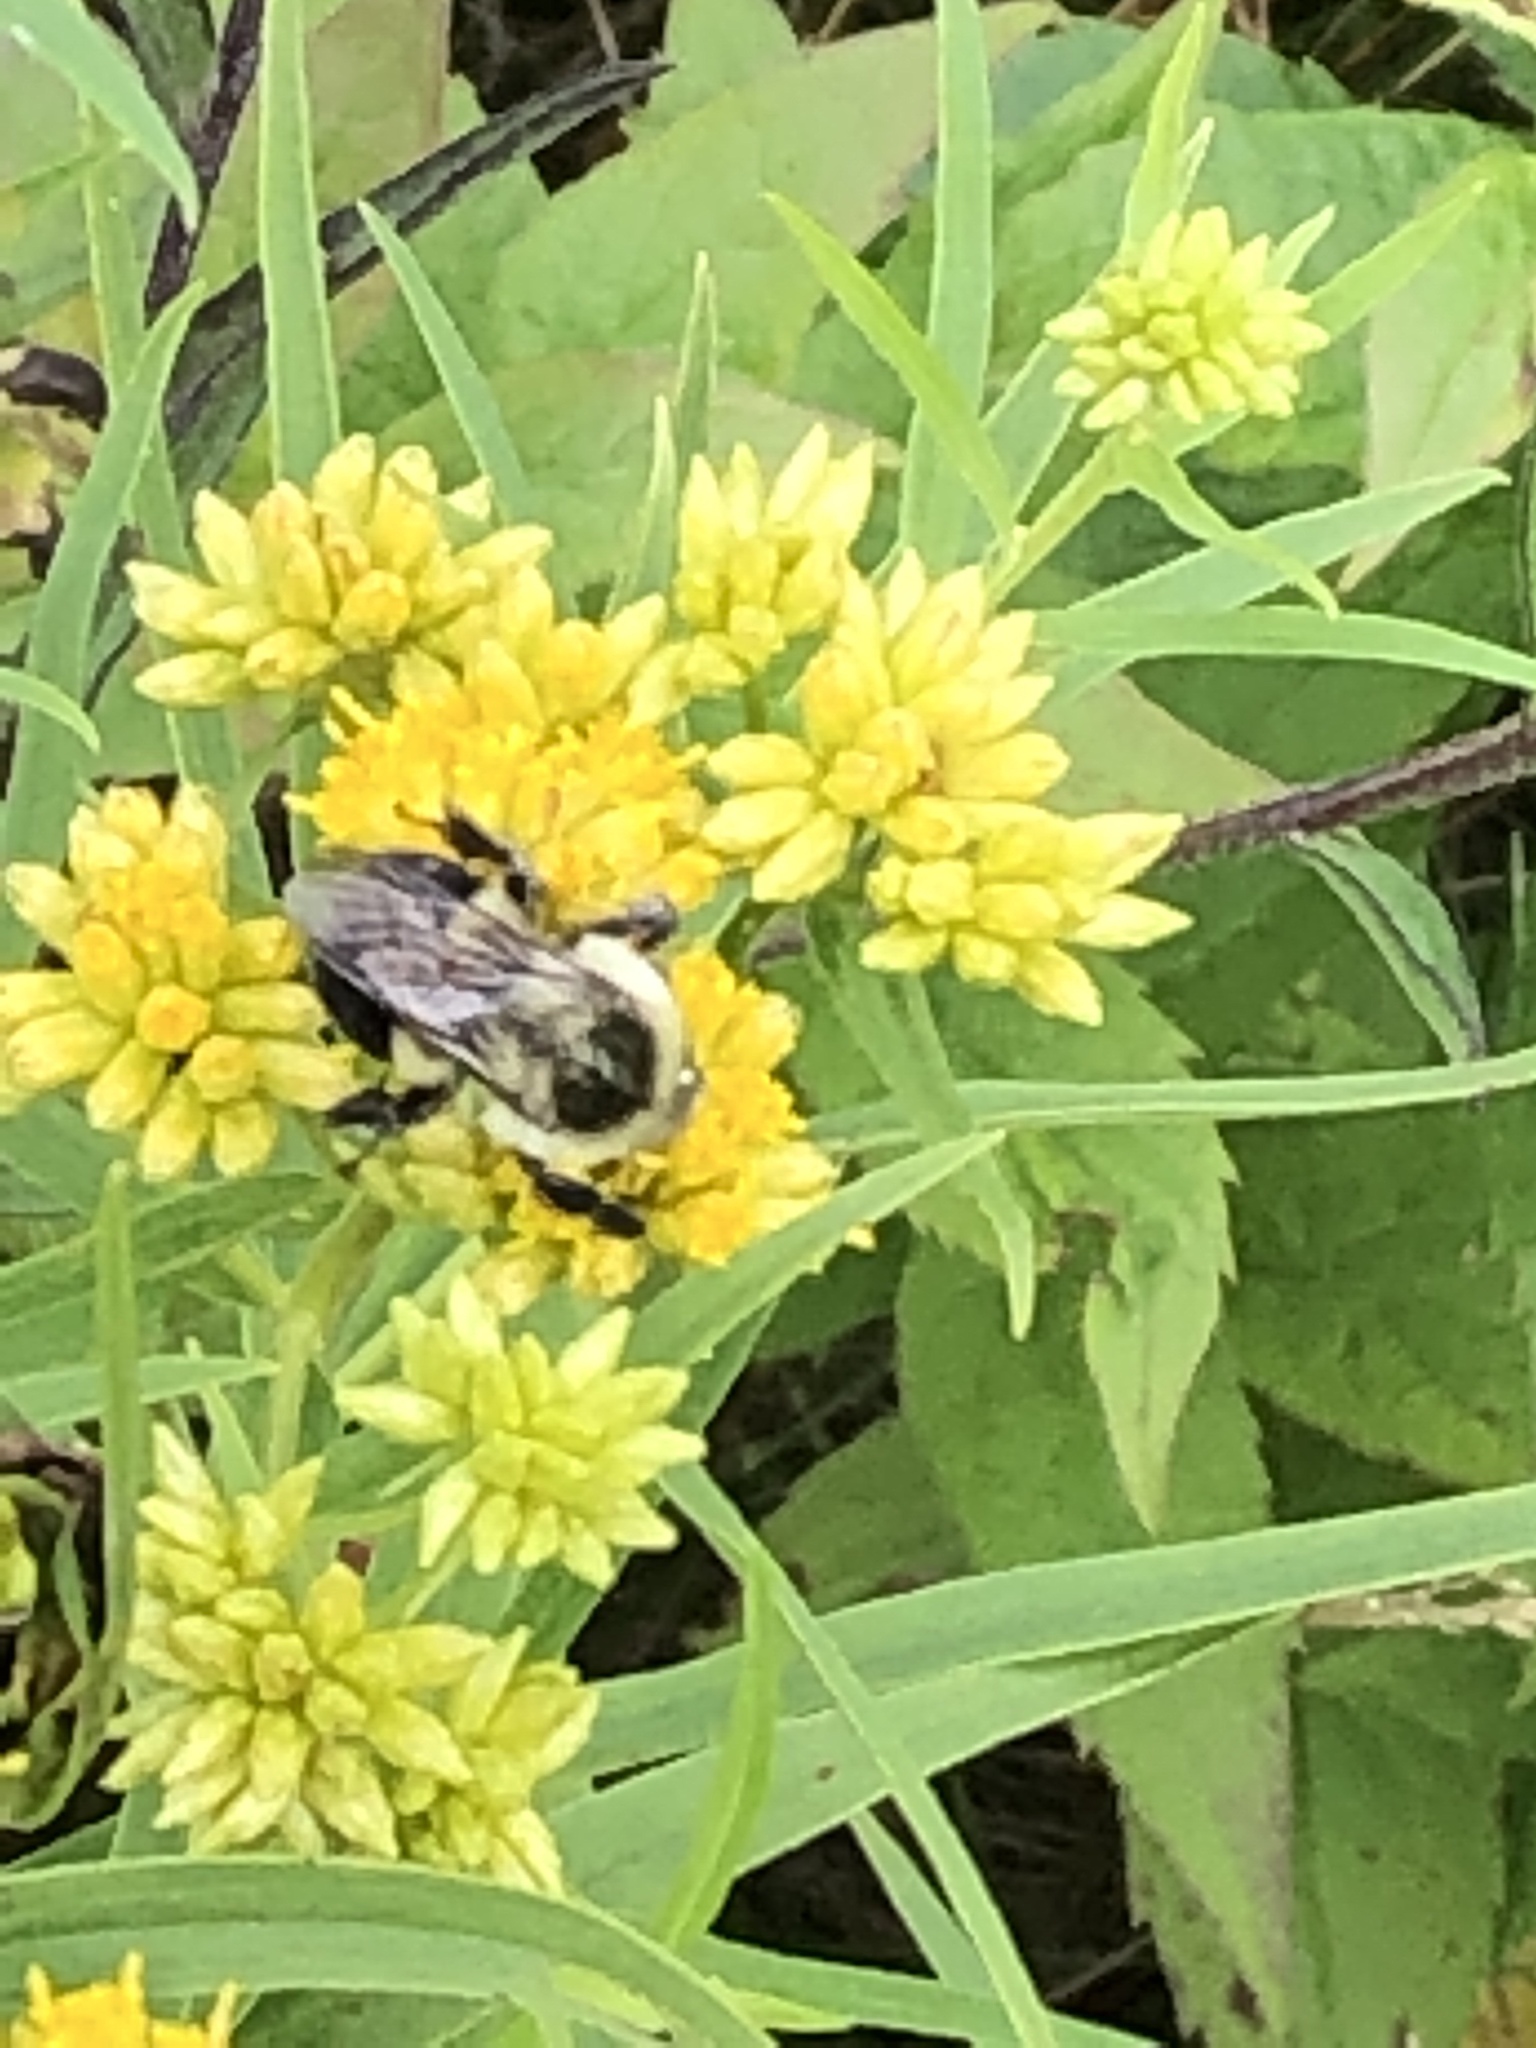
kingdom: Plantae
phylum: Tracheophyta
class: Magnoliopsida
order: Asterales
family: Asteraceae
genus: Euthamia
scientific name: Euthamia graminifolia
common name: Common goldentop
